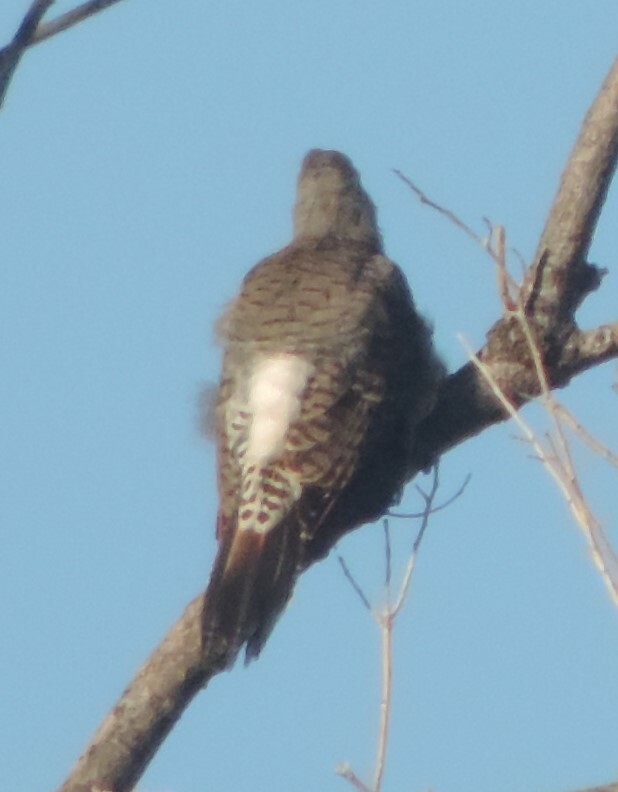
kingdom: Animalia
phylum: Chordata
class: Aves
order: Piciformes
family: Picidae
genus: Colaptes
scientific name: Colaptes auratus
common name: Northern flicker
